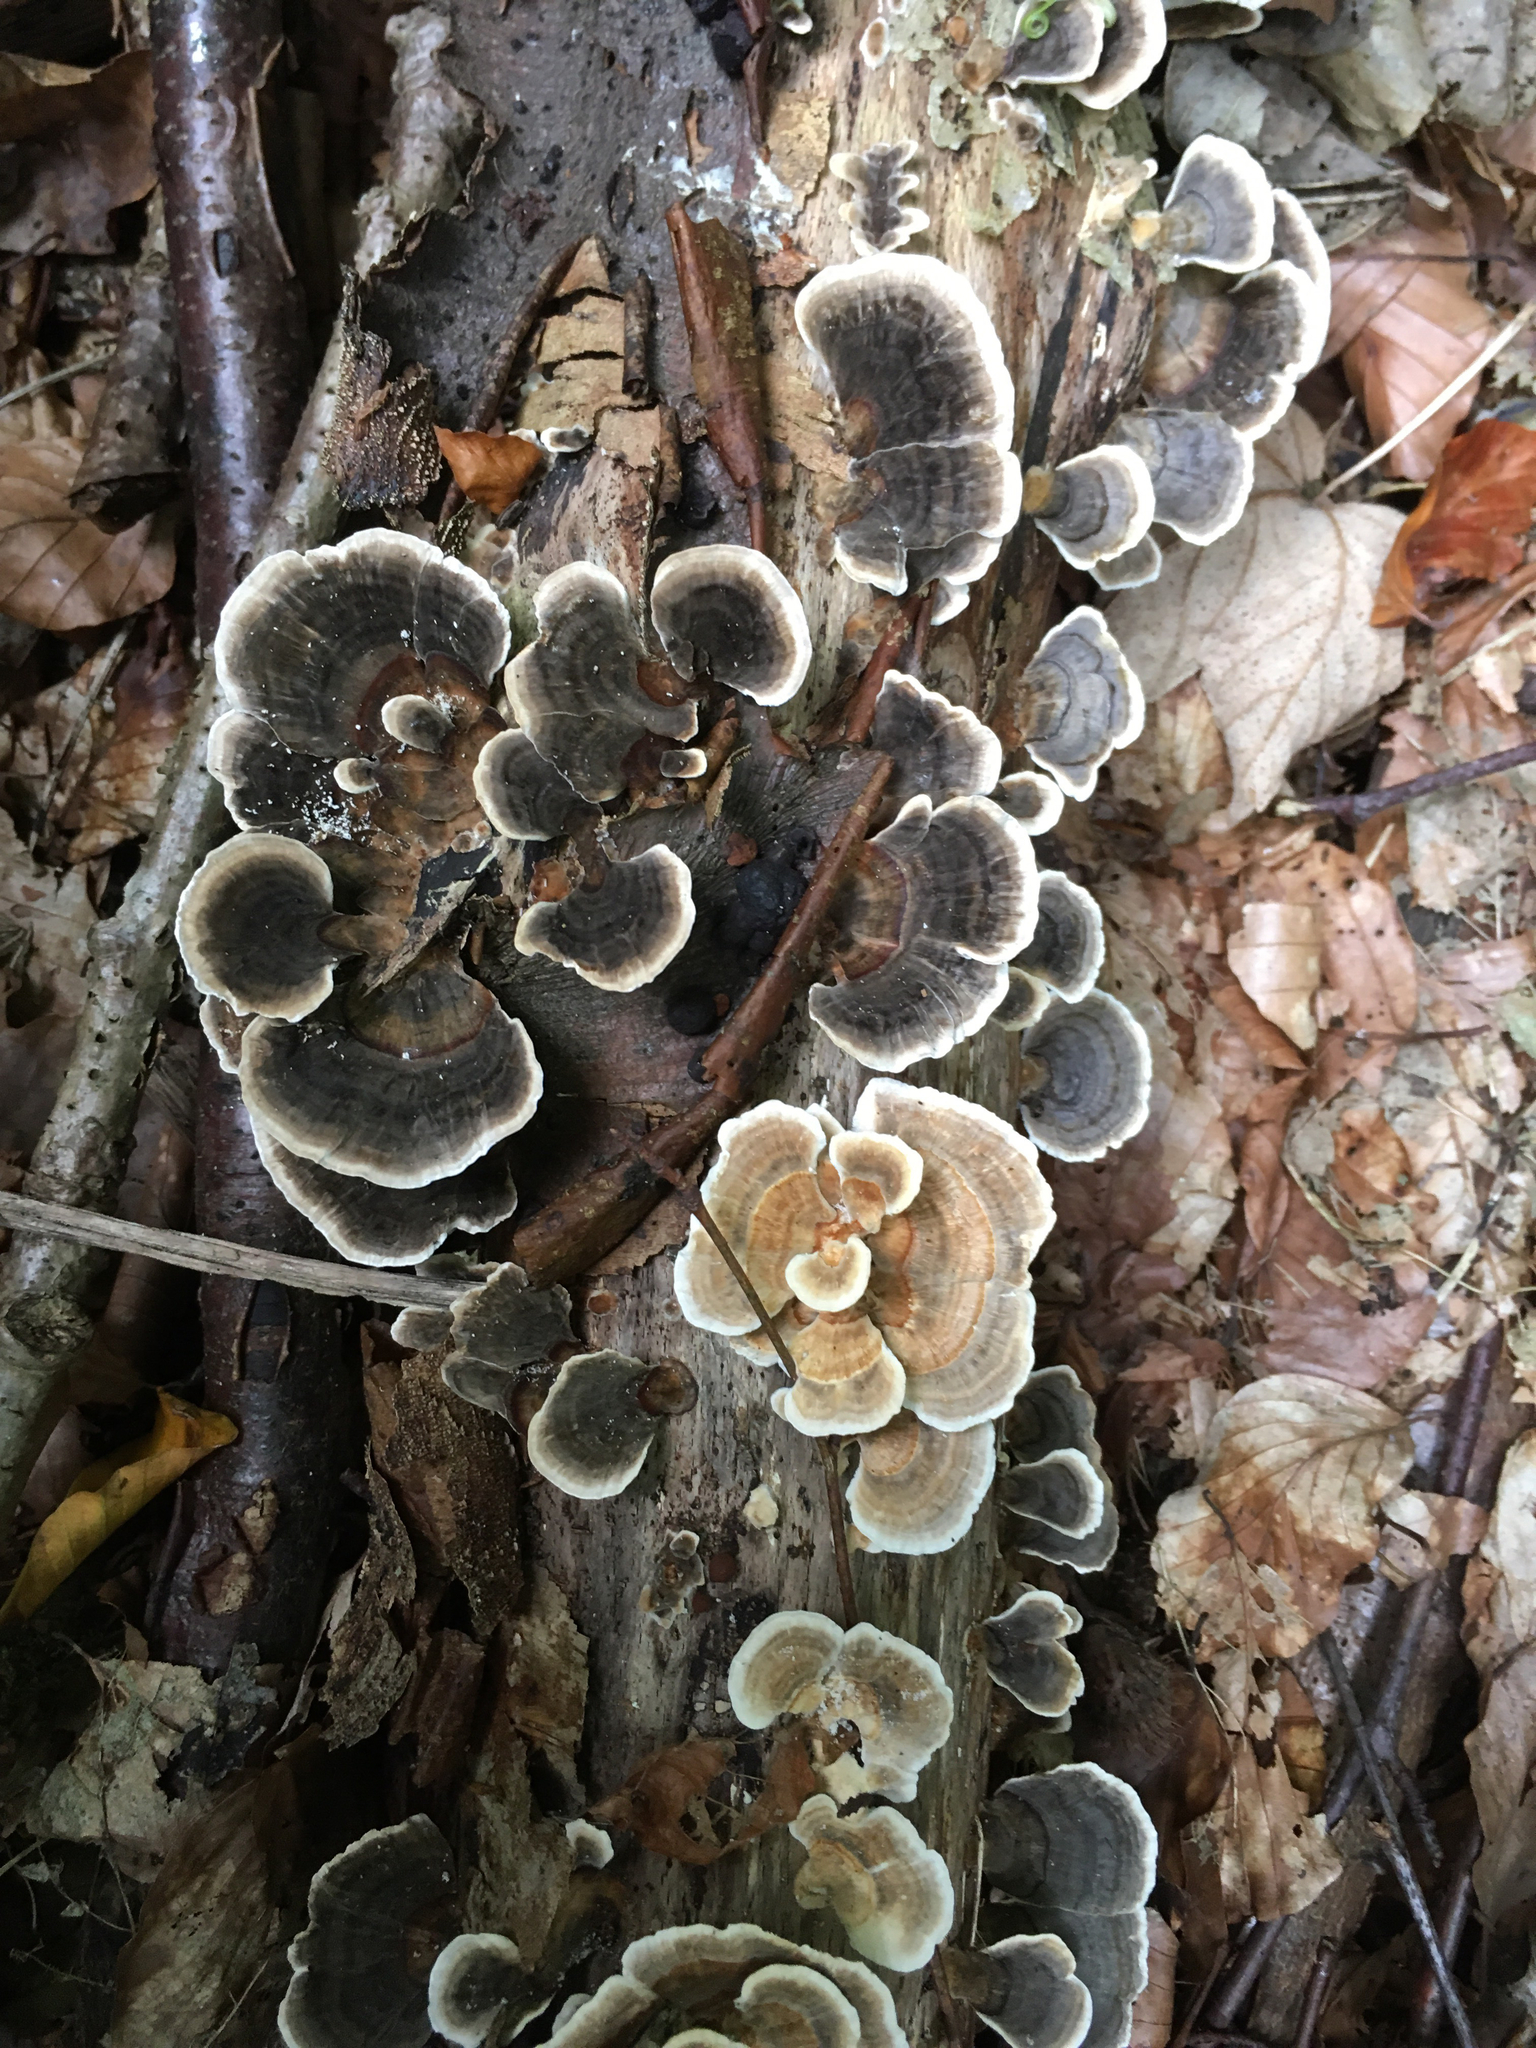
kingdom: Fungi
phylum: Basidiomycota
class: Agaricomycetes
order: Polyporales
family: Polyporaceae
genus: Trametes
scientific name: Trametes versicolor
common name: Turkeytail
